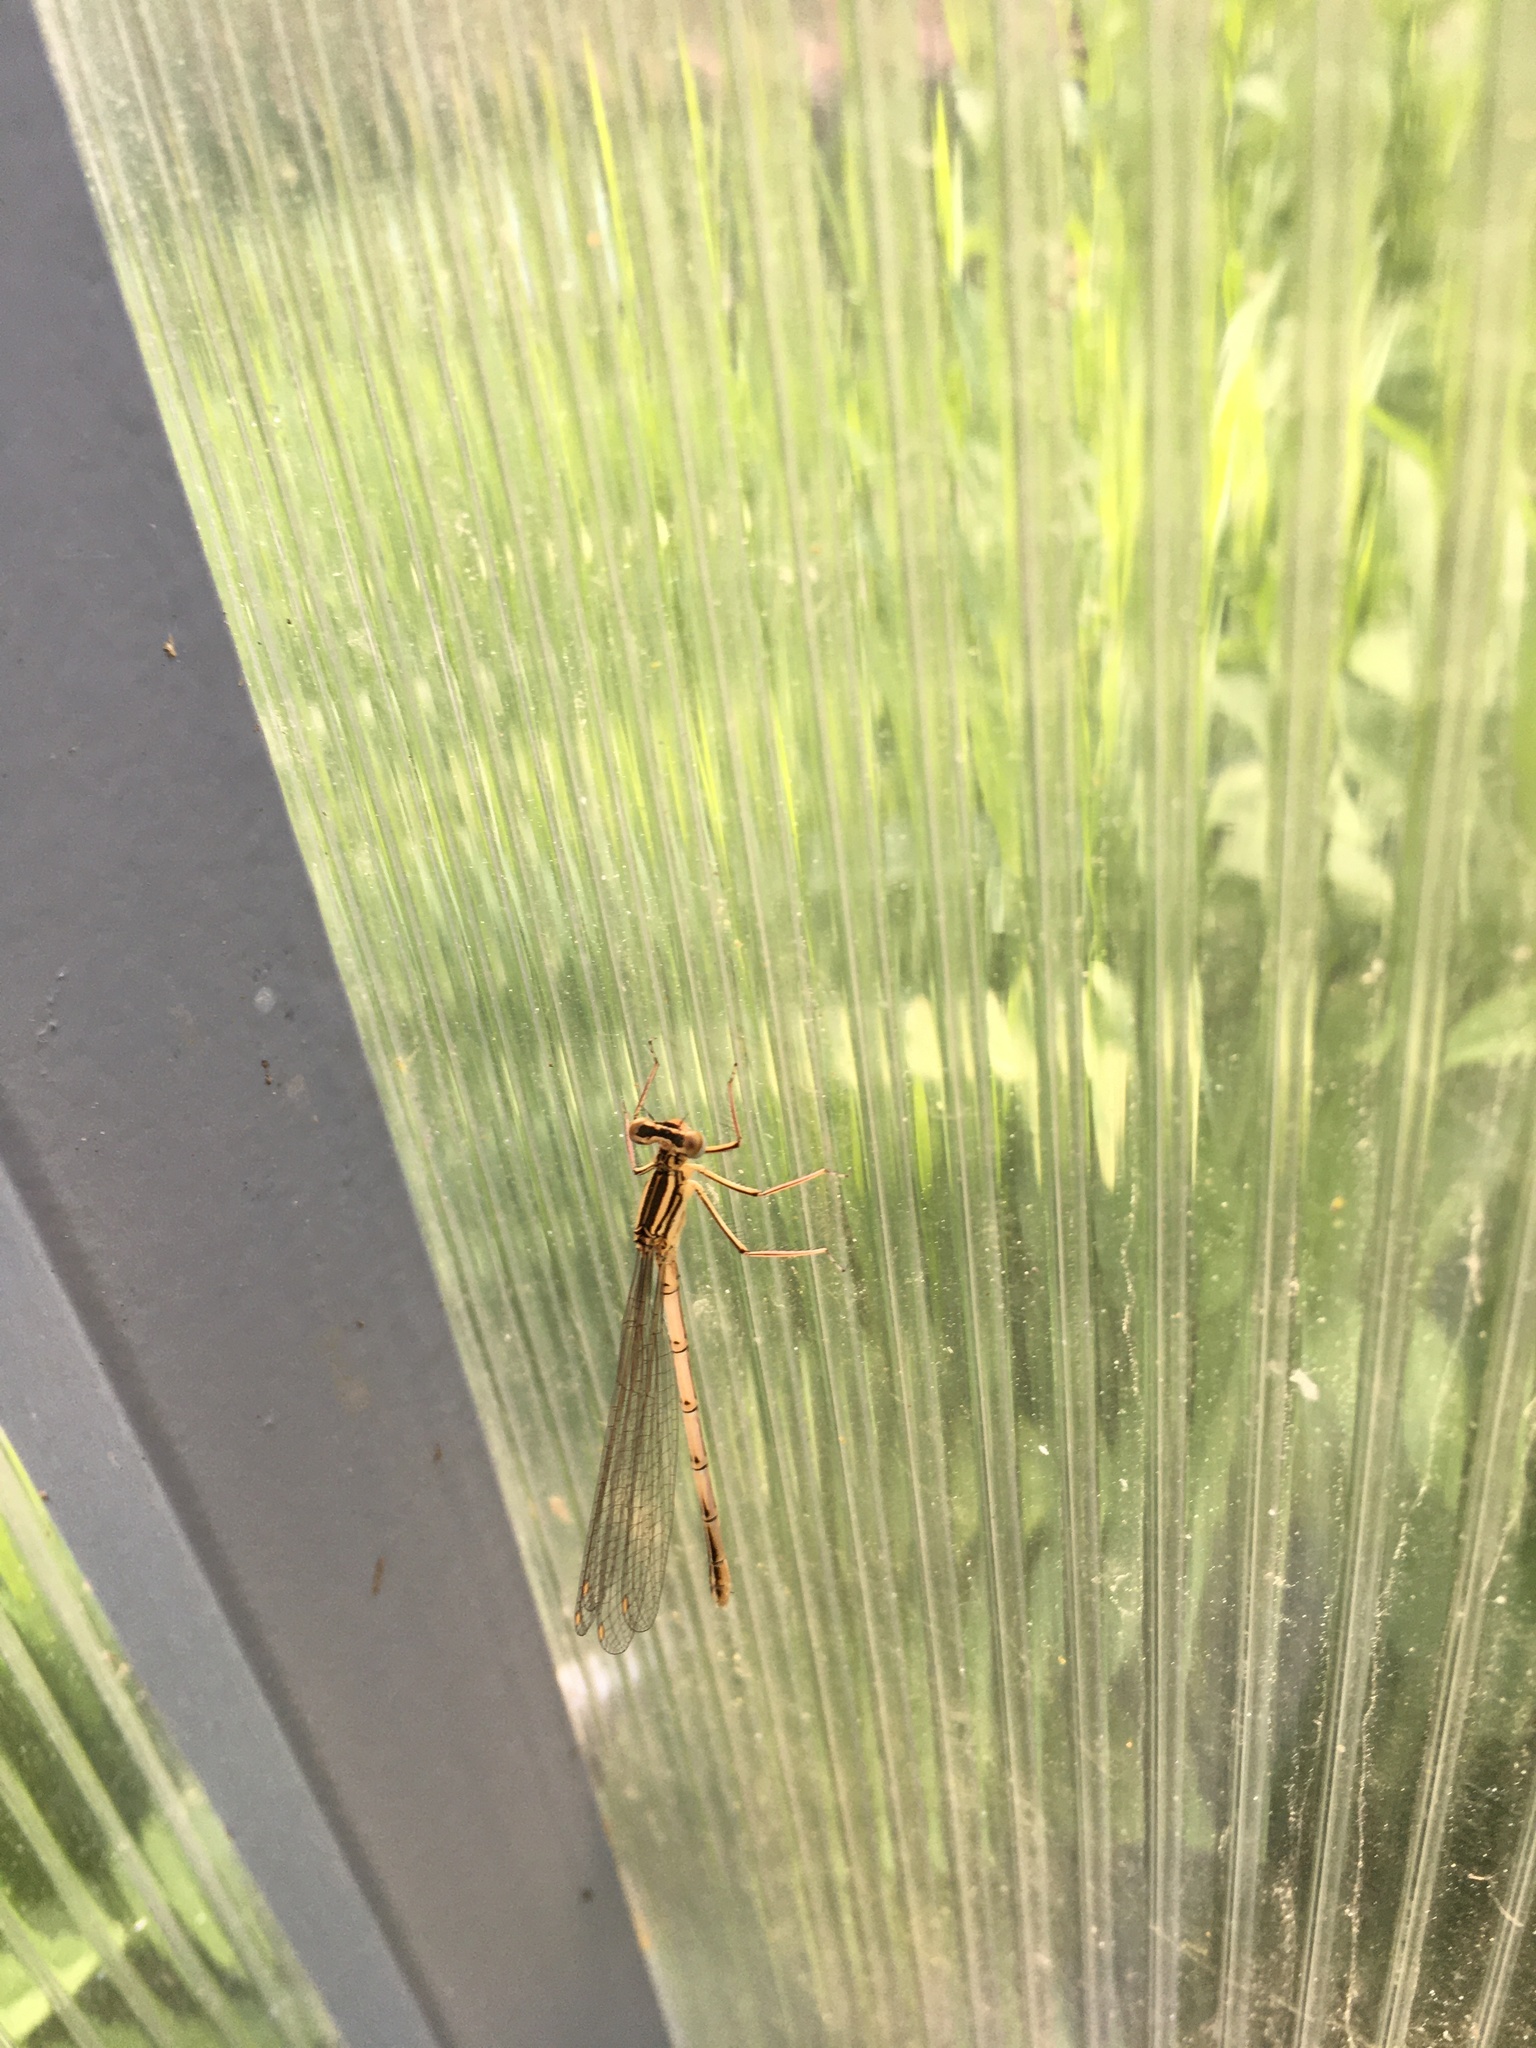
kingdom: Animalia
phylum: Arthropoda
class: Insecta
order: Odonata
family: Platycnemididae
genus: Platycnemis
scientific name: Platycnemis pennipes
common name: White-legged damselfly
